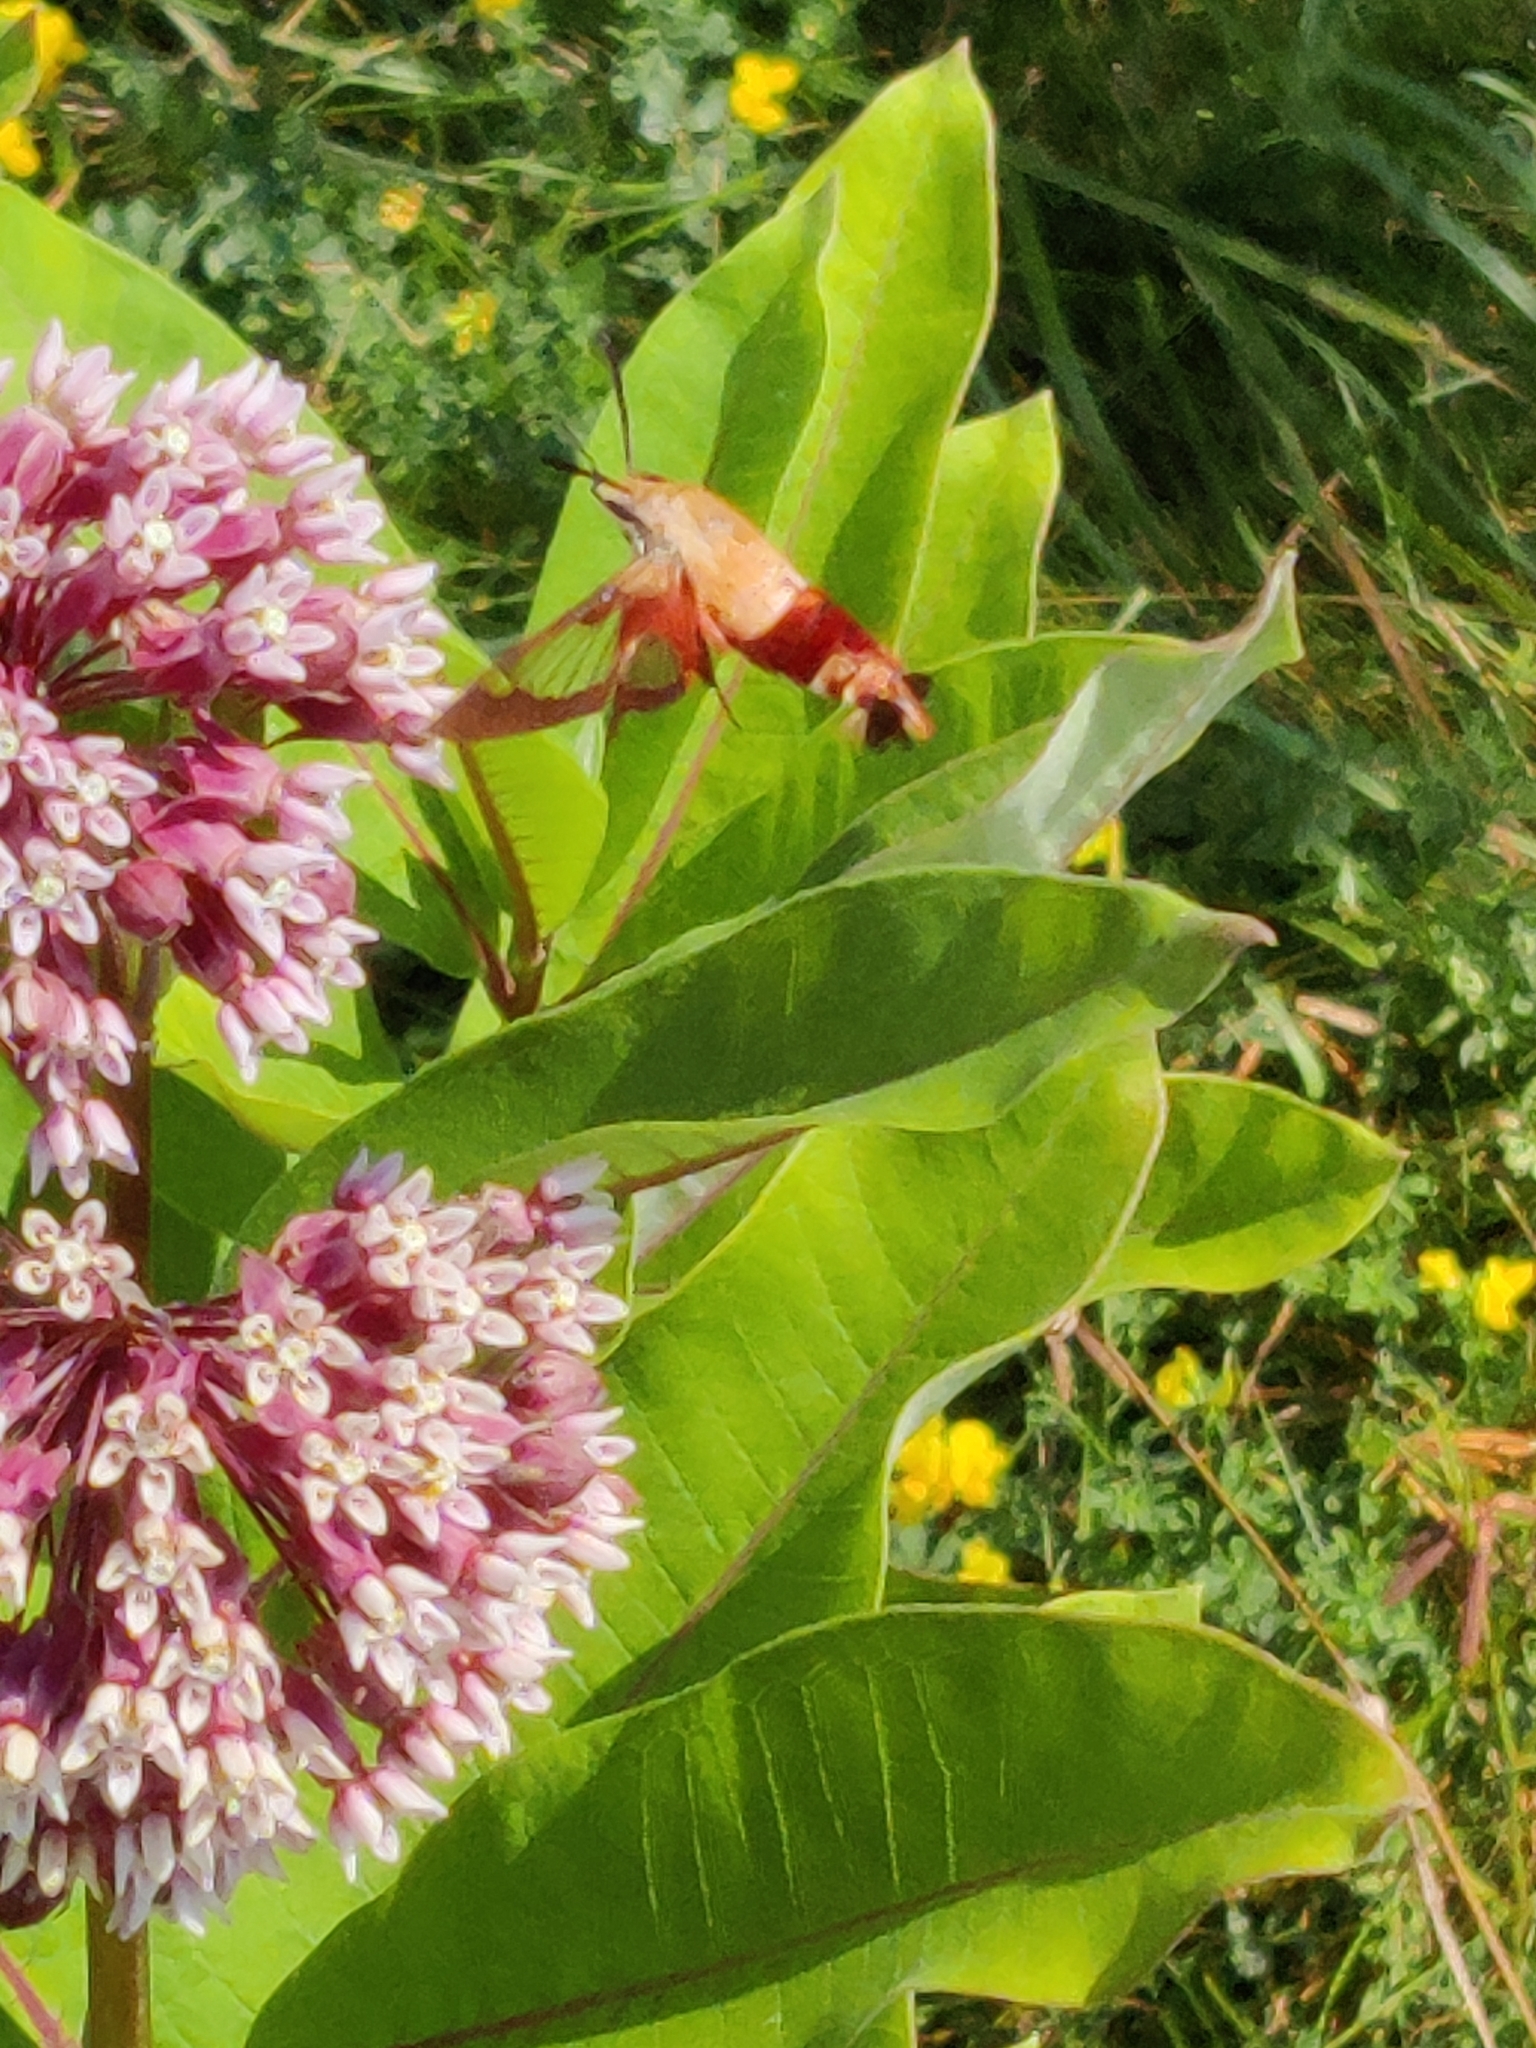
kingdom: Animalia
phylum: Arthropoda
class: Insecta
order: Lepidoptera
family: Sphingidae
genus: Hemaris
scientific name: Hemaris thysbe
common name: Common clear-wing
